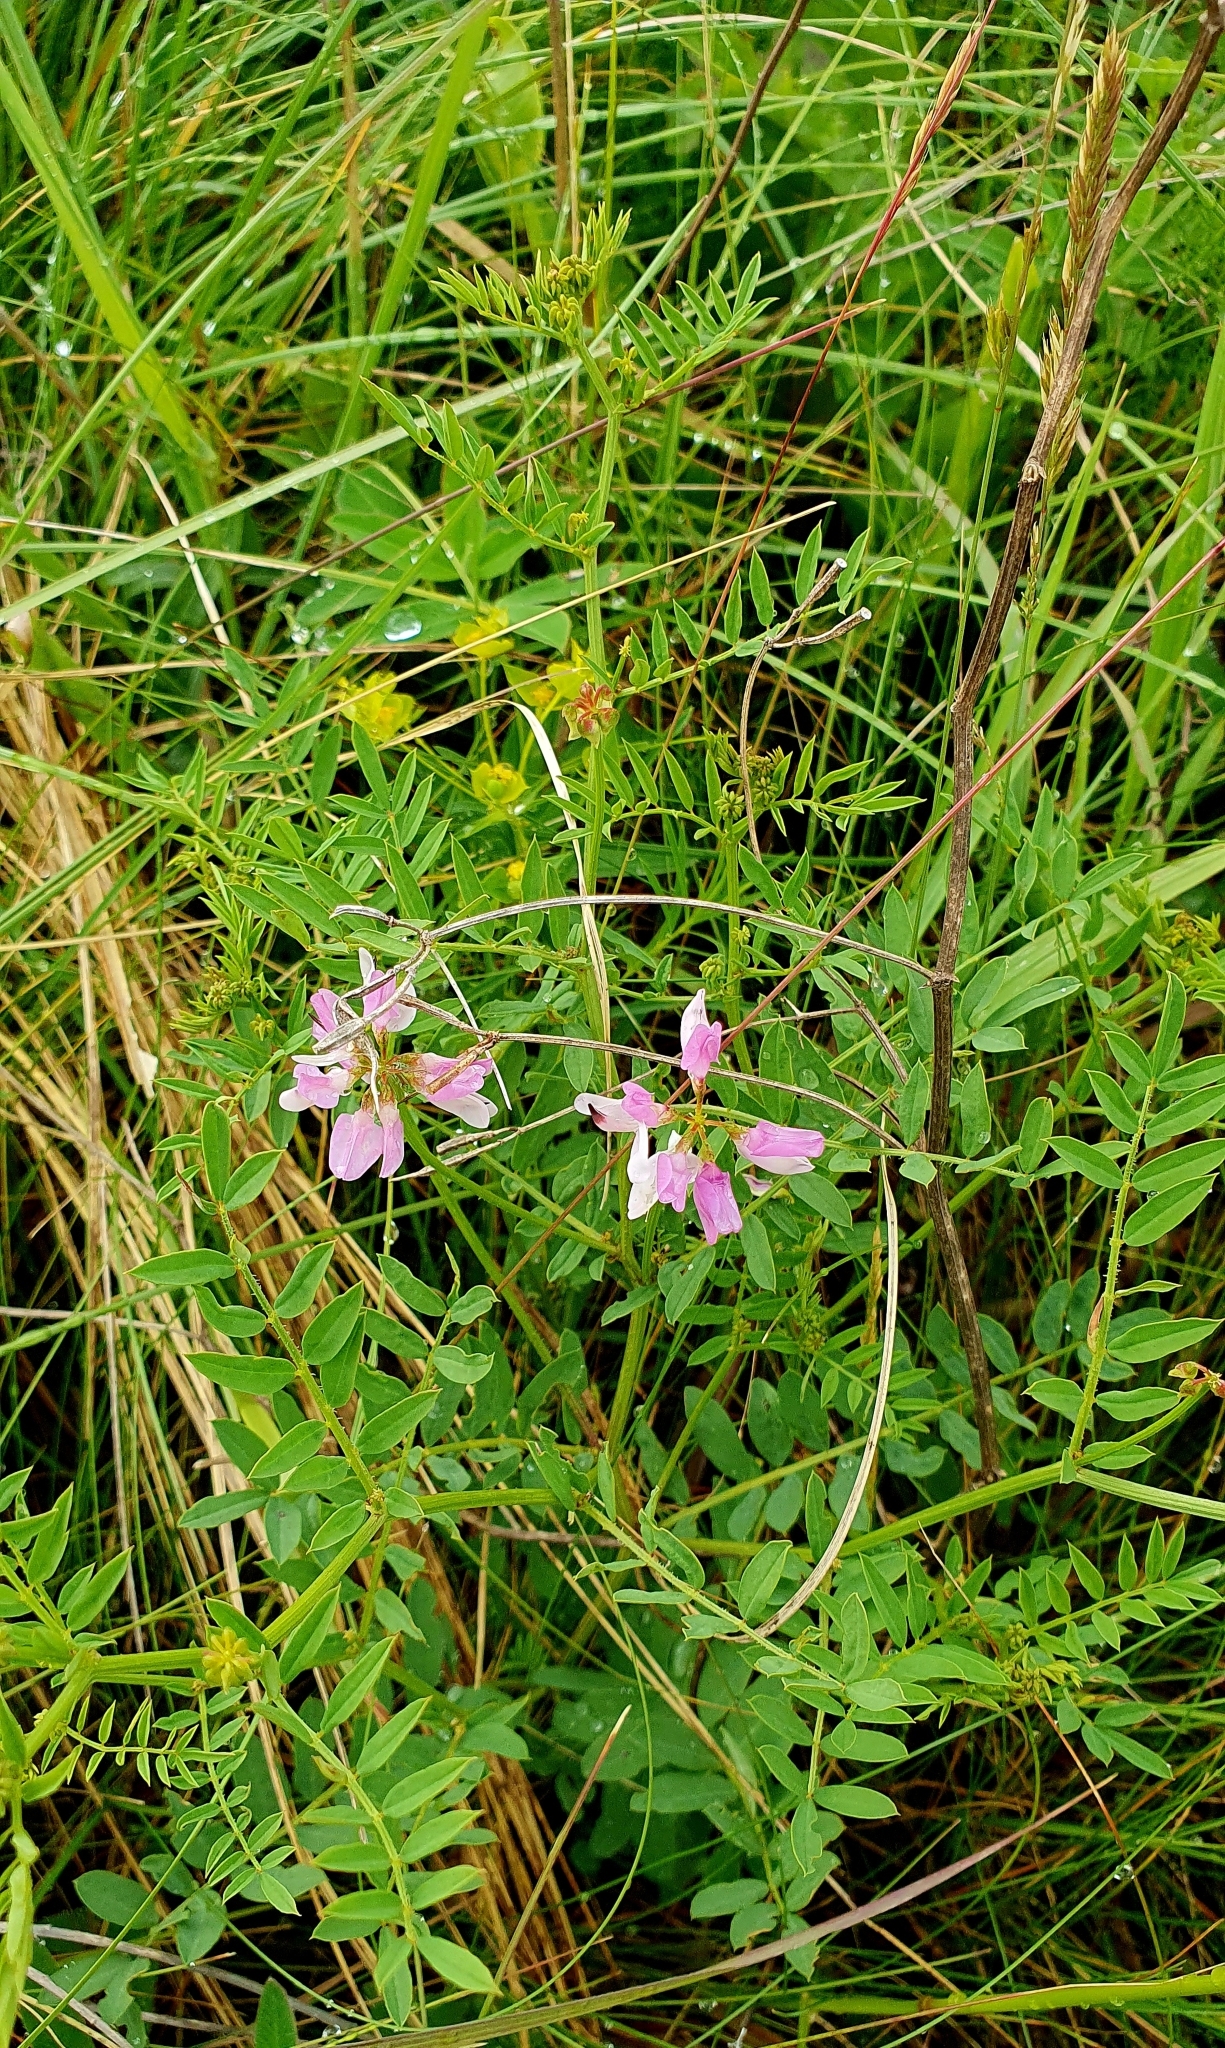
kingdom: Plantae
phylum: Tracheophyta
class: Magnoliopsida
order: Fabales
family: Fabaceae
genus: Coronilla
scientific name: Coronilla varia
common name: Crownvetch
